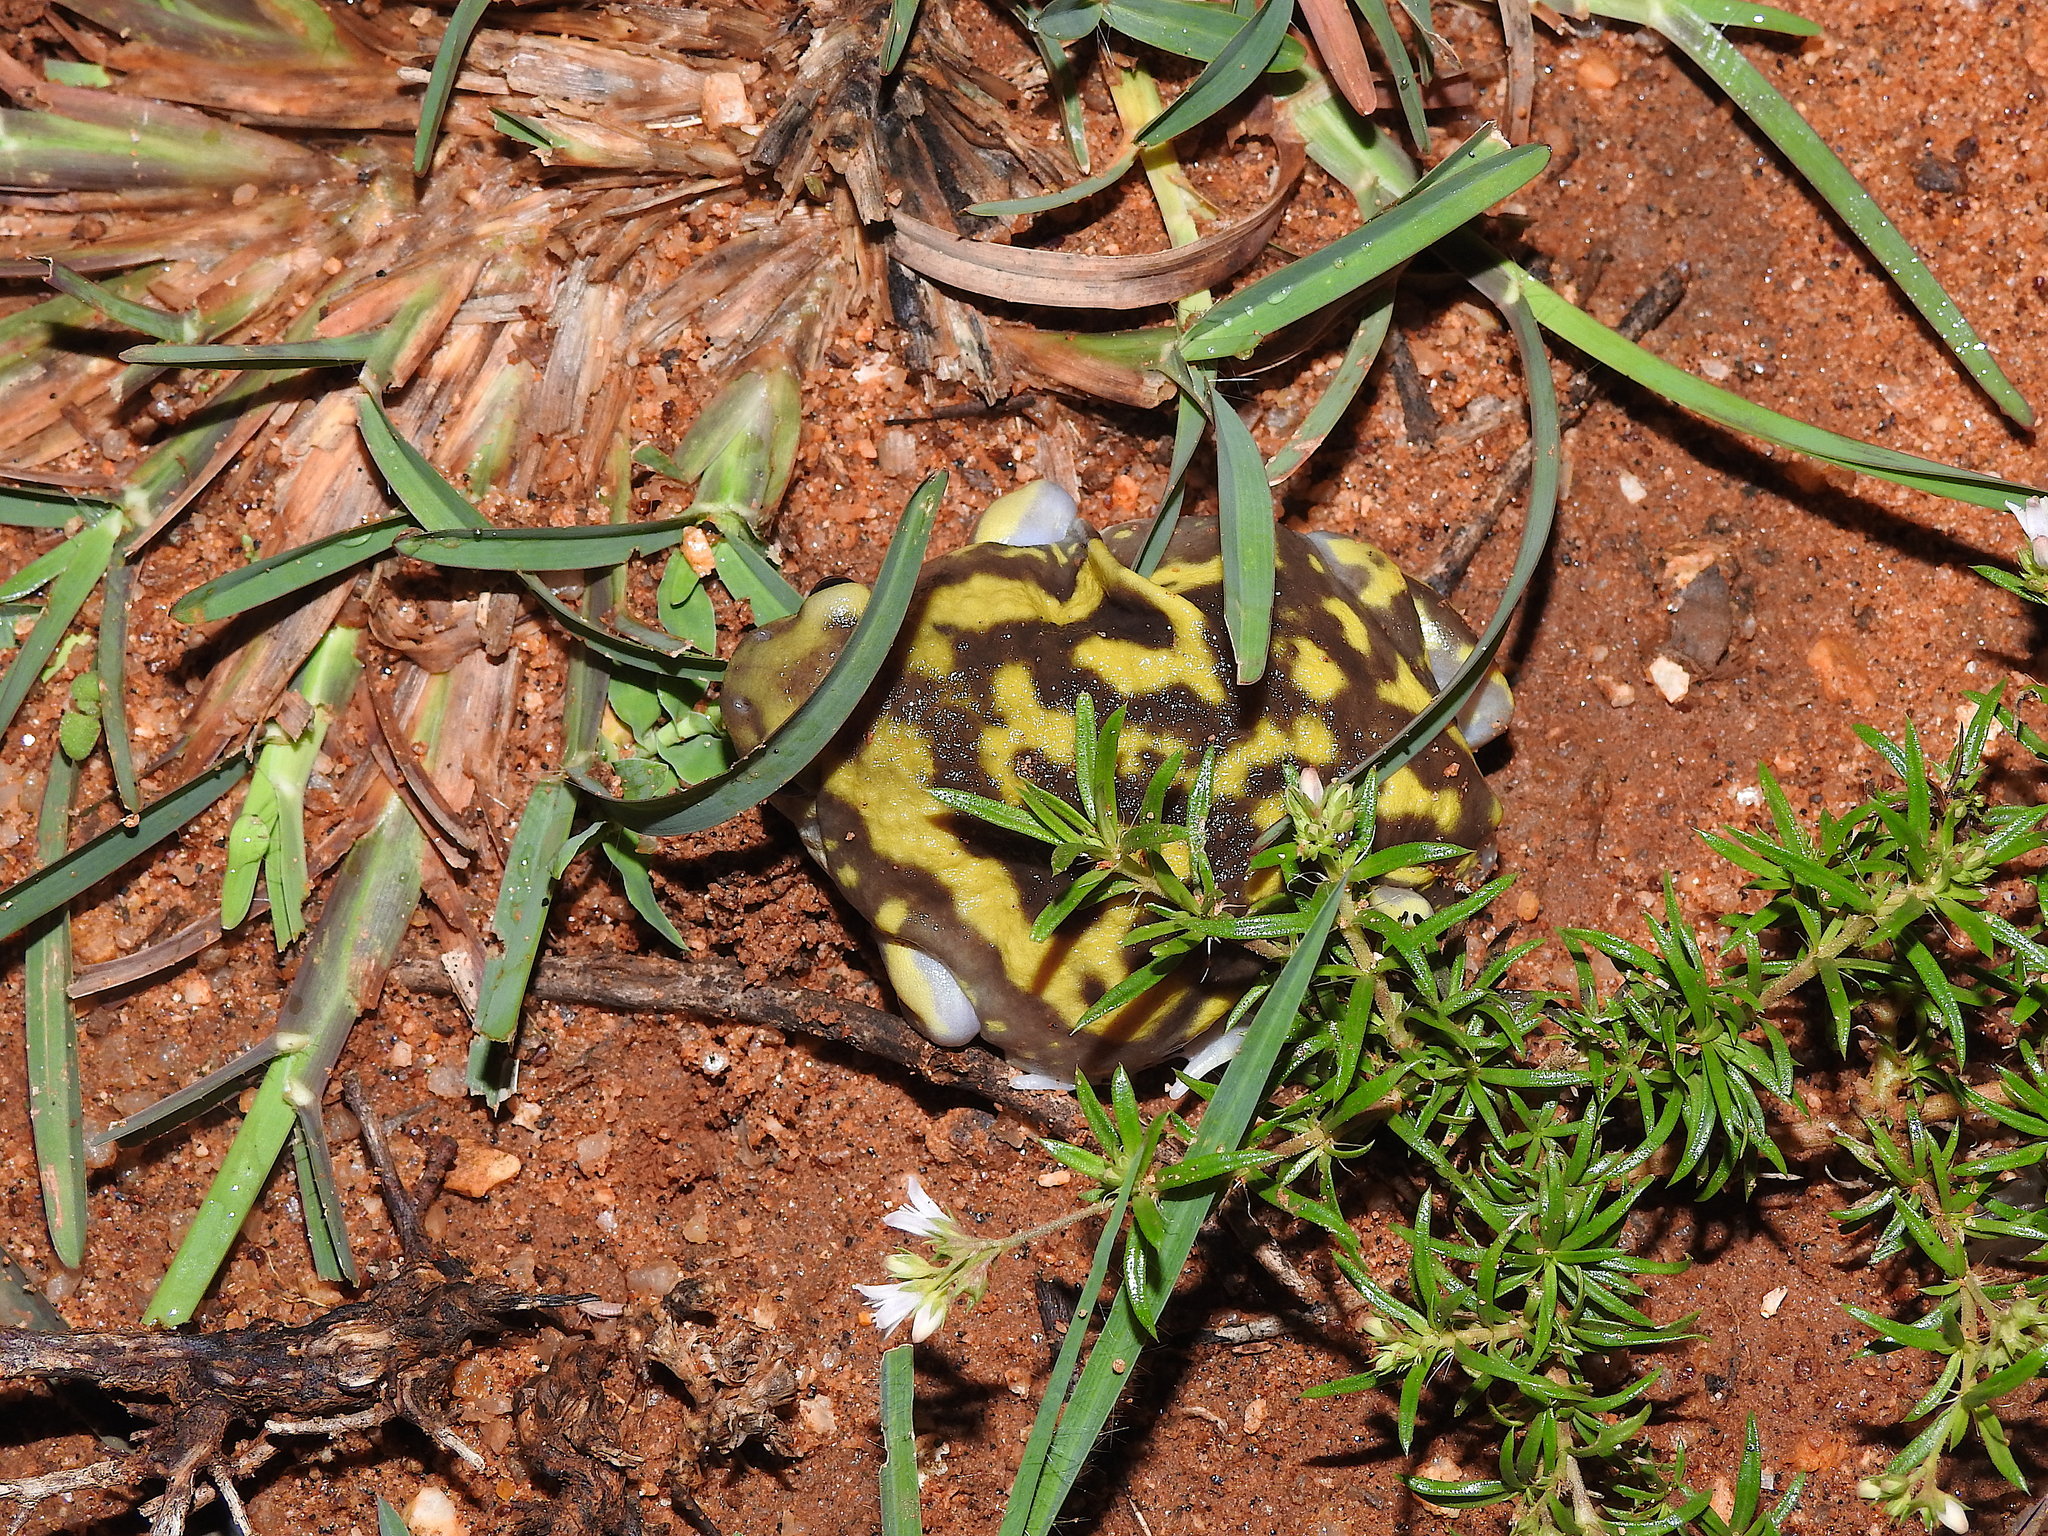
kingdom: Animalia
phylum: Chordata
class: Amphibia
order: Anura
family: Microhylidae
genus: Uperodon
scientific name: Uperodon systoma
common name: Balloon frog
